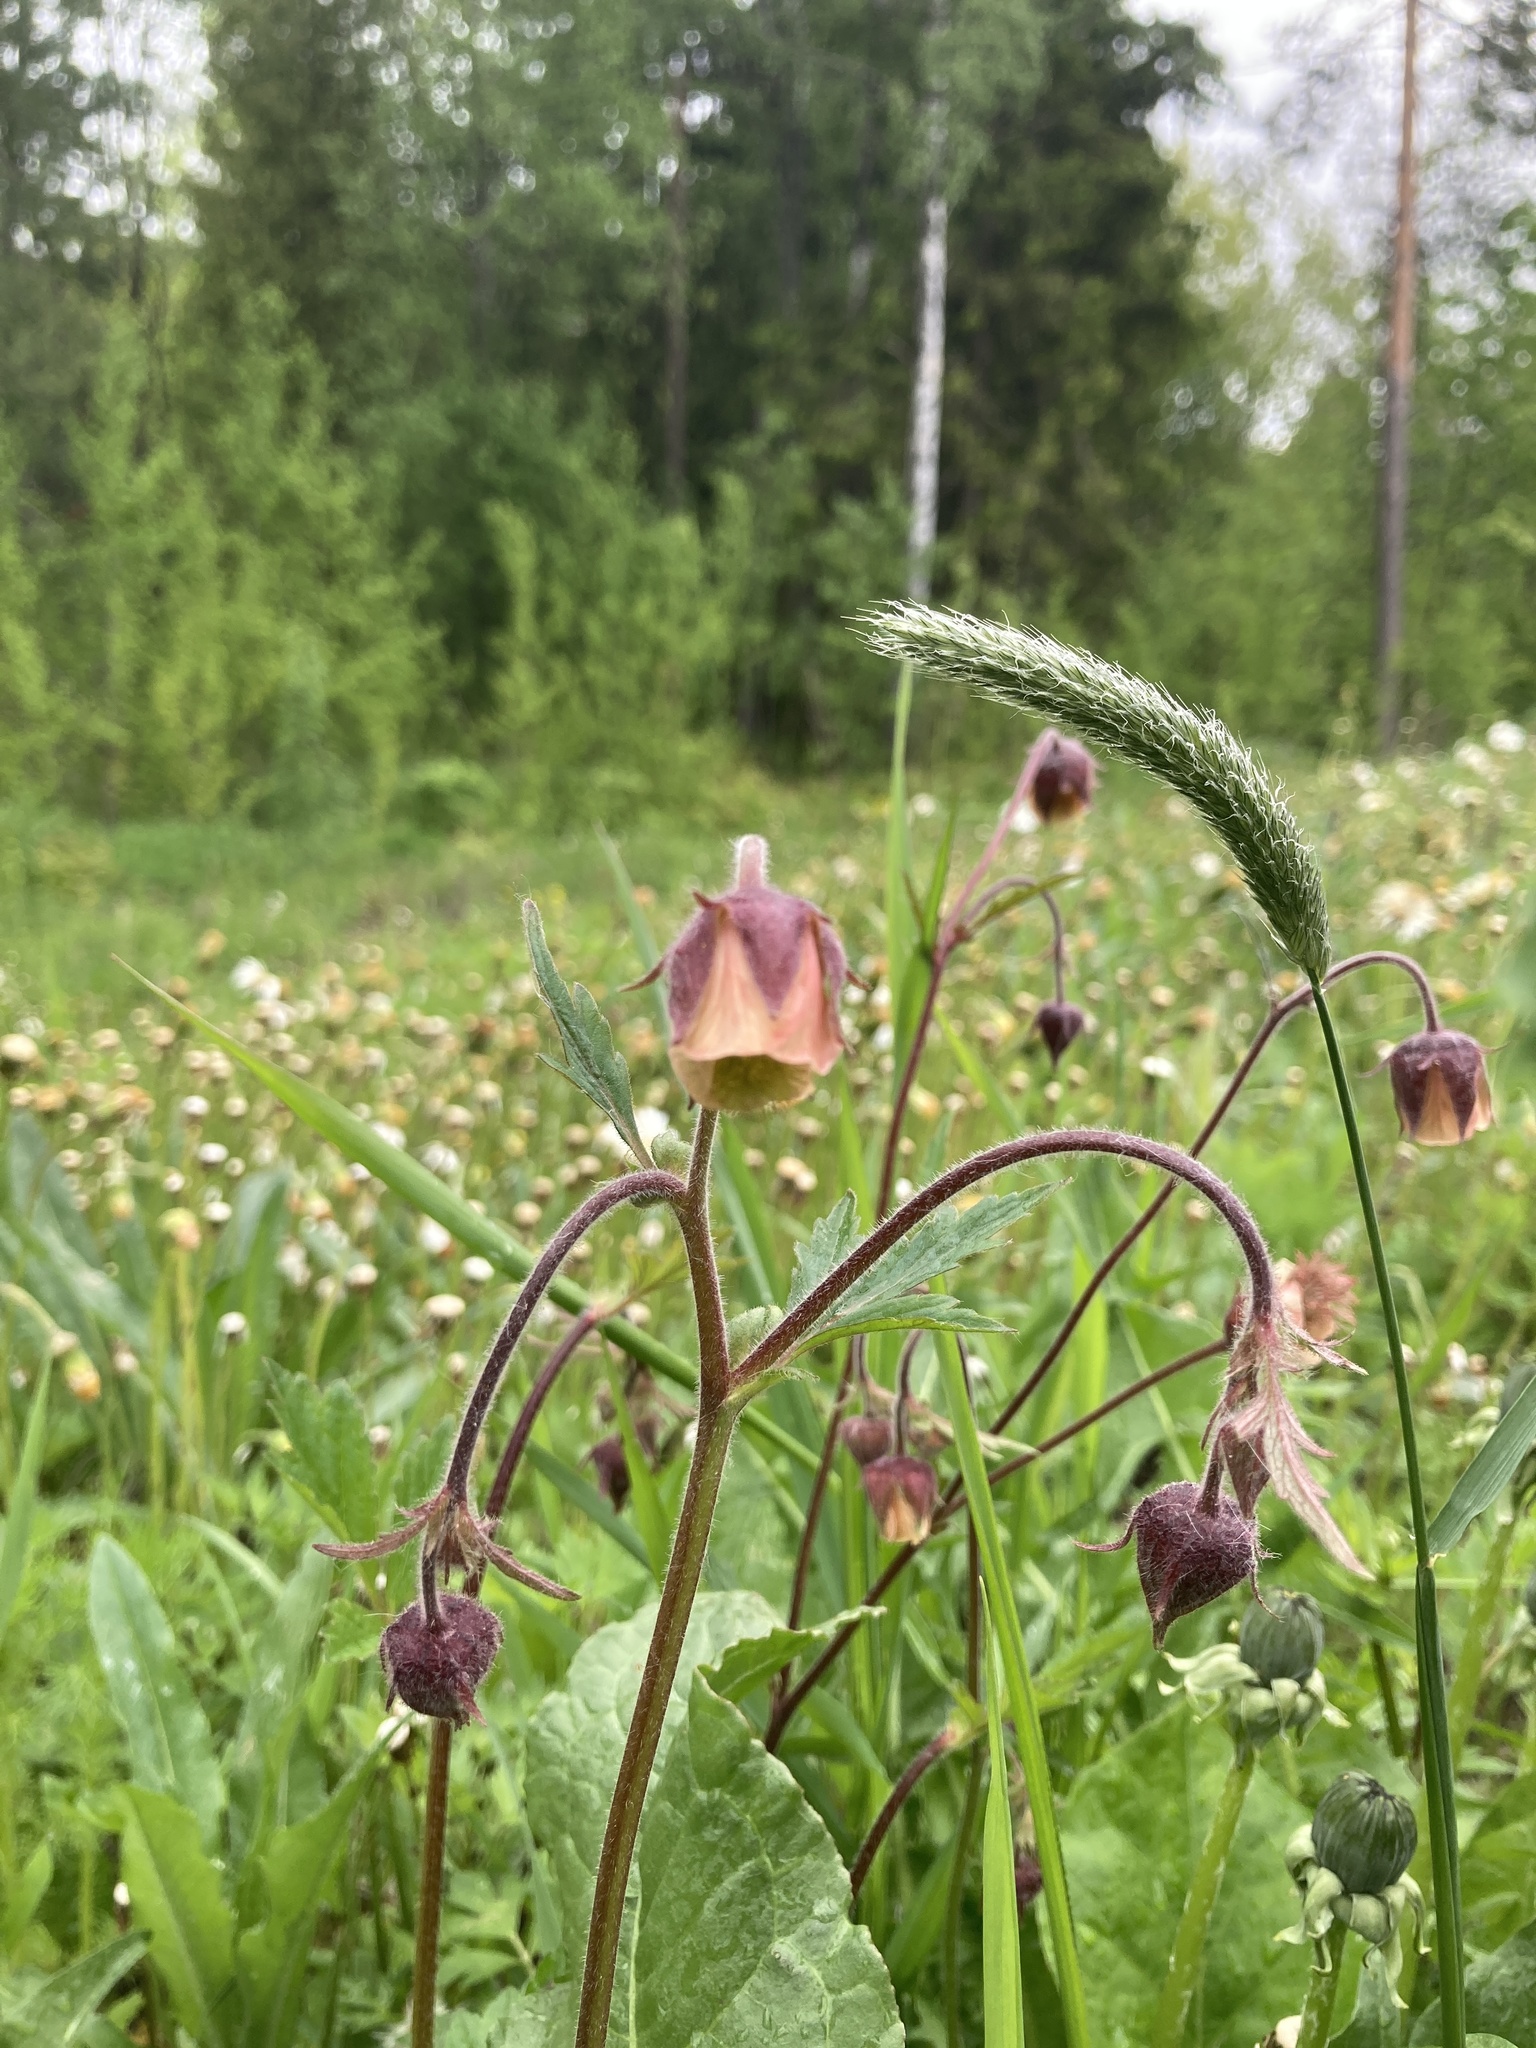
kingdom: Plantae
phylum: Tracheophyta
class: Magnoliopsida
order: Rosales
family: Rosaceae
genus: Geum
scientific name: Geum rivale
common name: Water avens
